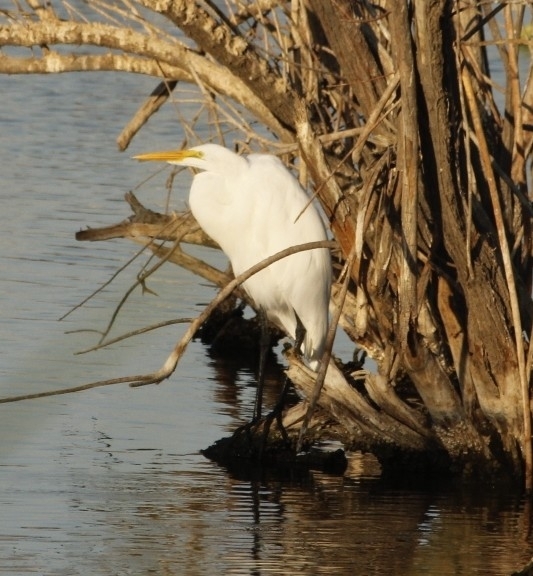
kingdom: Animalia
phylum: Chordata
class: Aves
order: Pelecaniformes
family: Ardeidae
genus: Ardea
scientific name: Ardea alba
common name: Great egret
